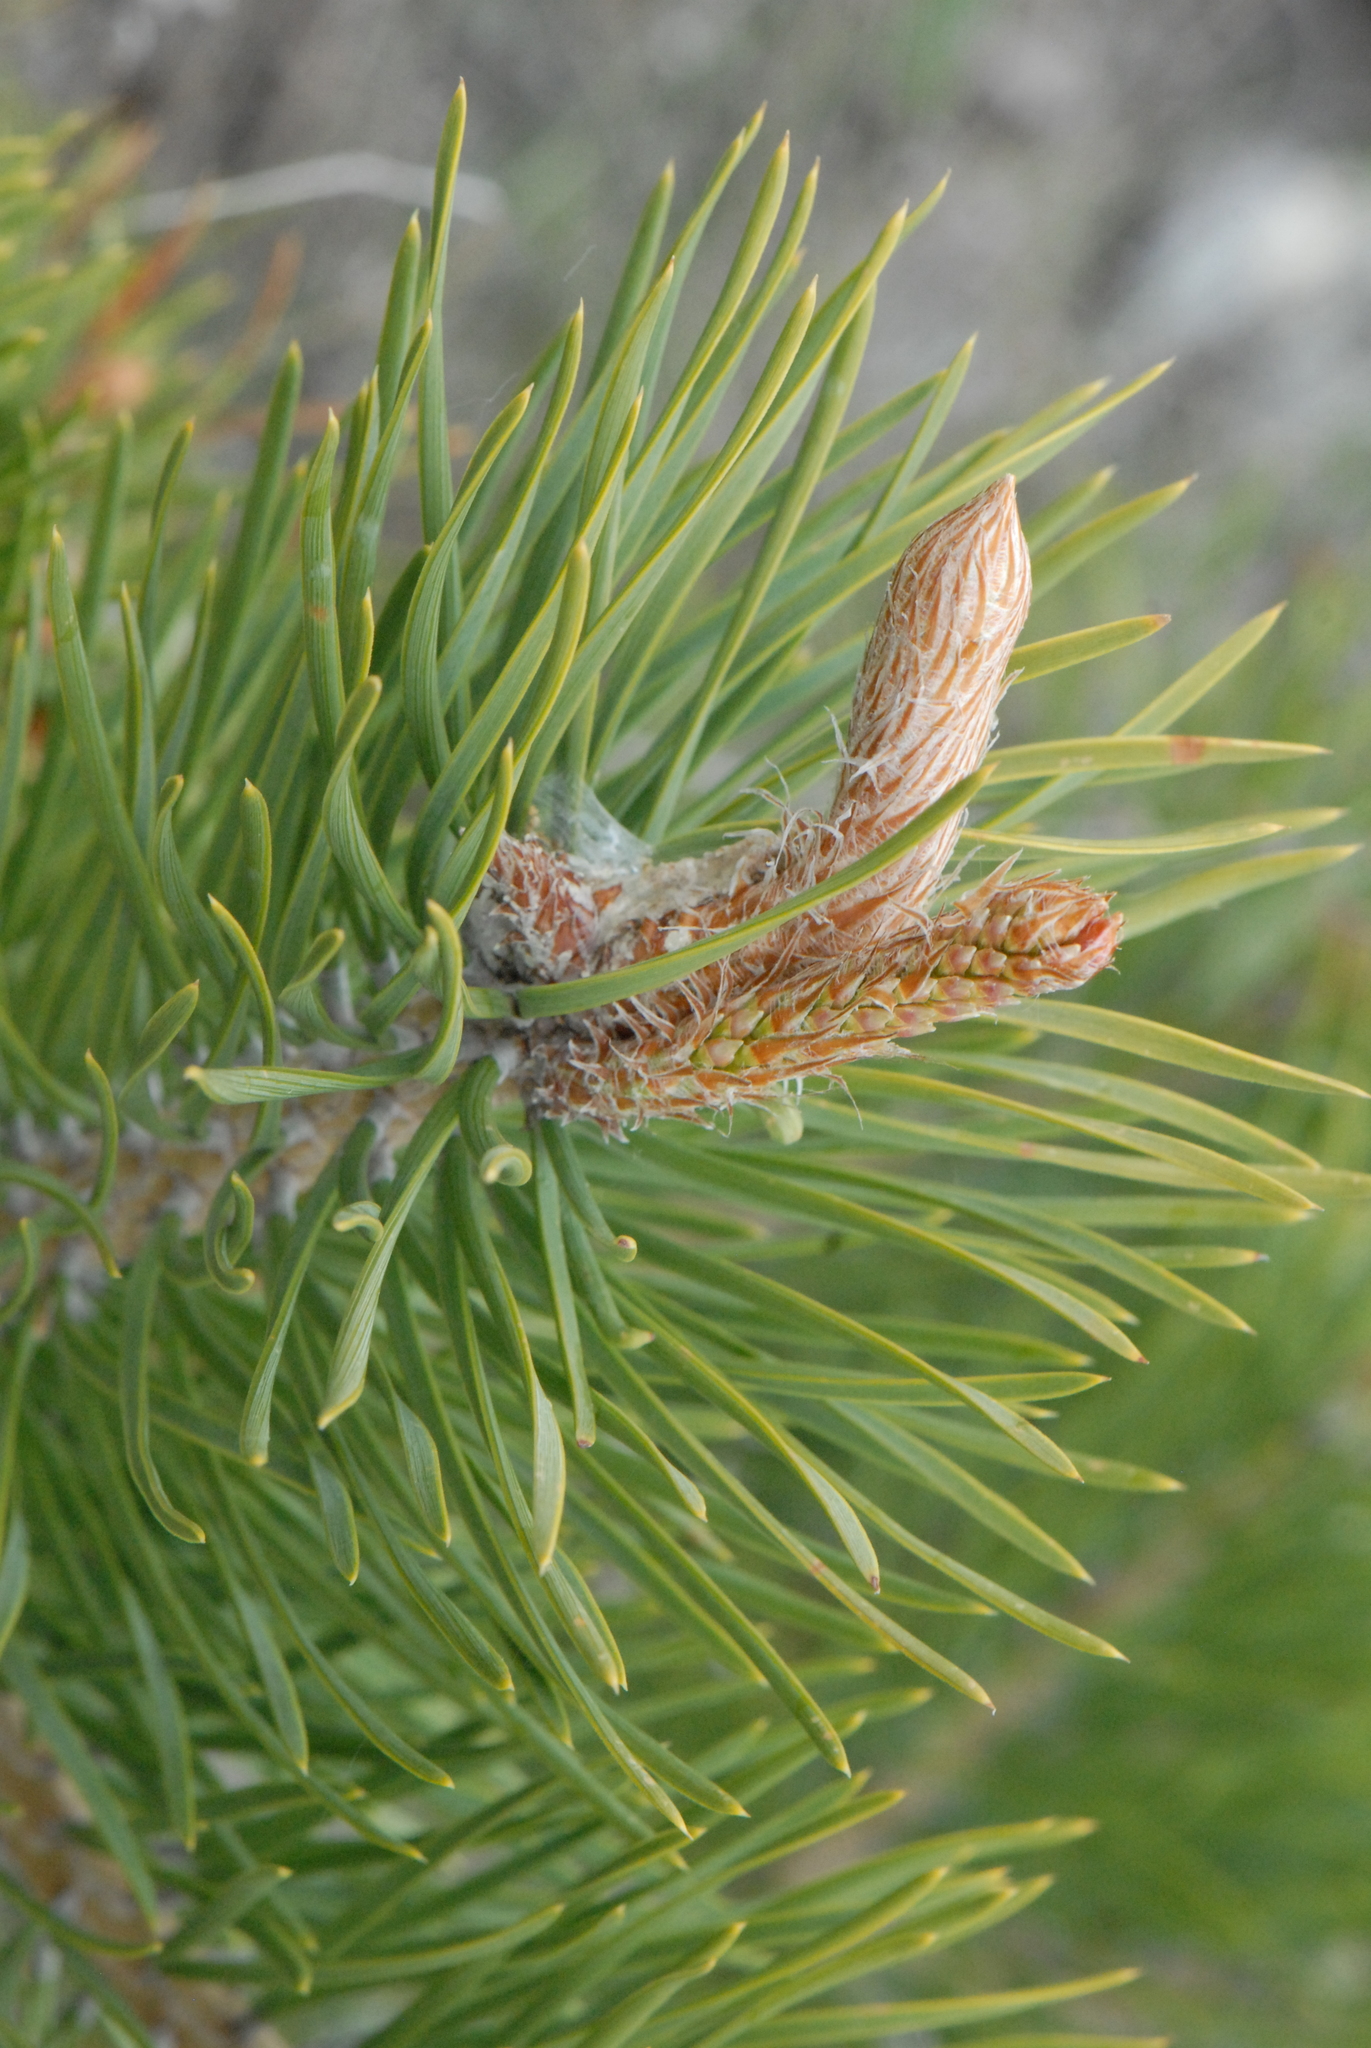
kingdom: Plantae
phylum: Tracheophyta
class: Pinopsida
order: Pinales
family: Pinaceae
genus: Pinus
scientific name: Pinus sylvestris
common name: Scots pine
